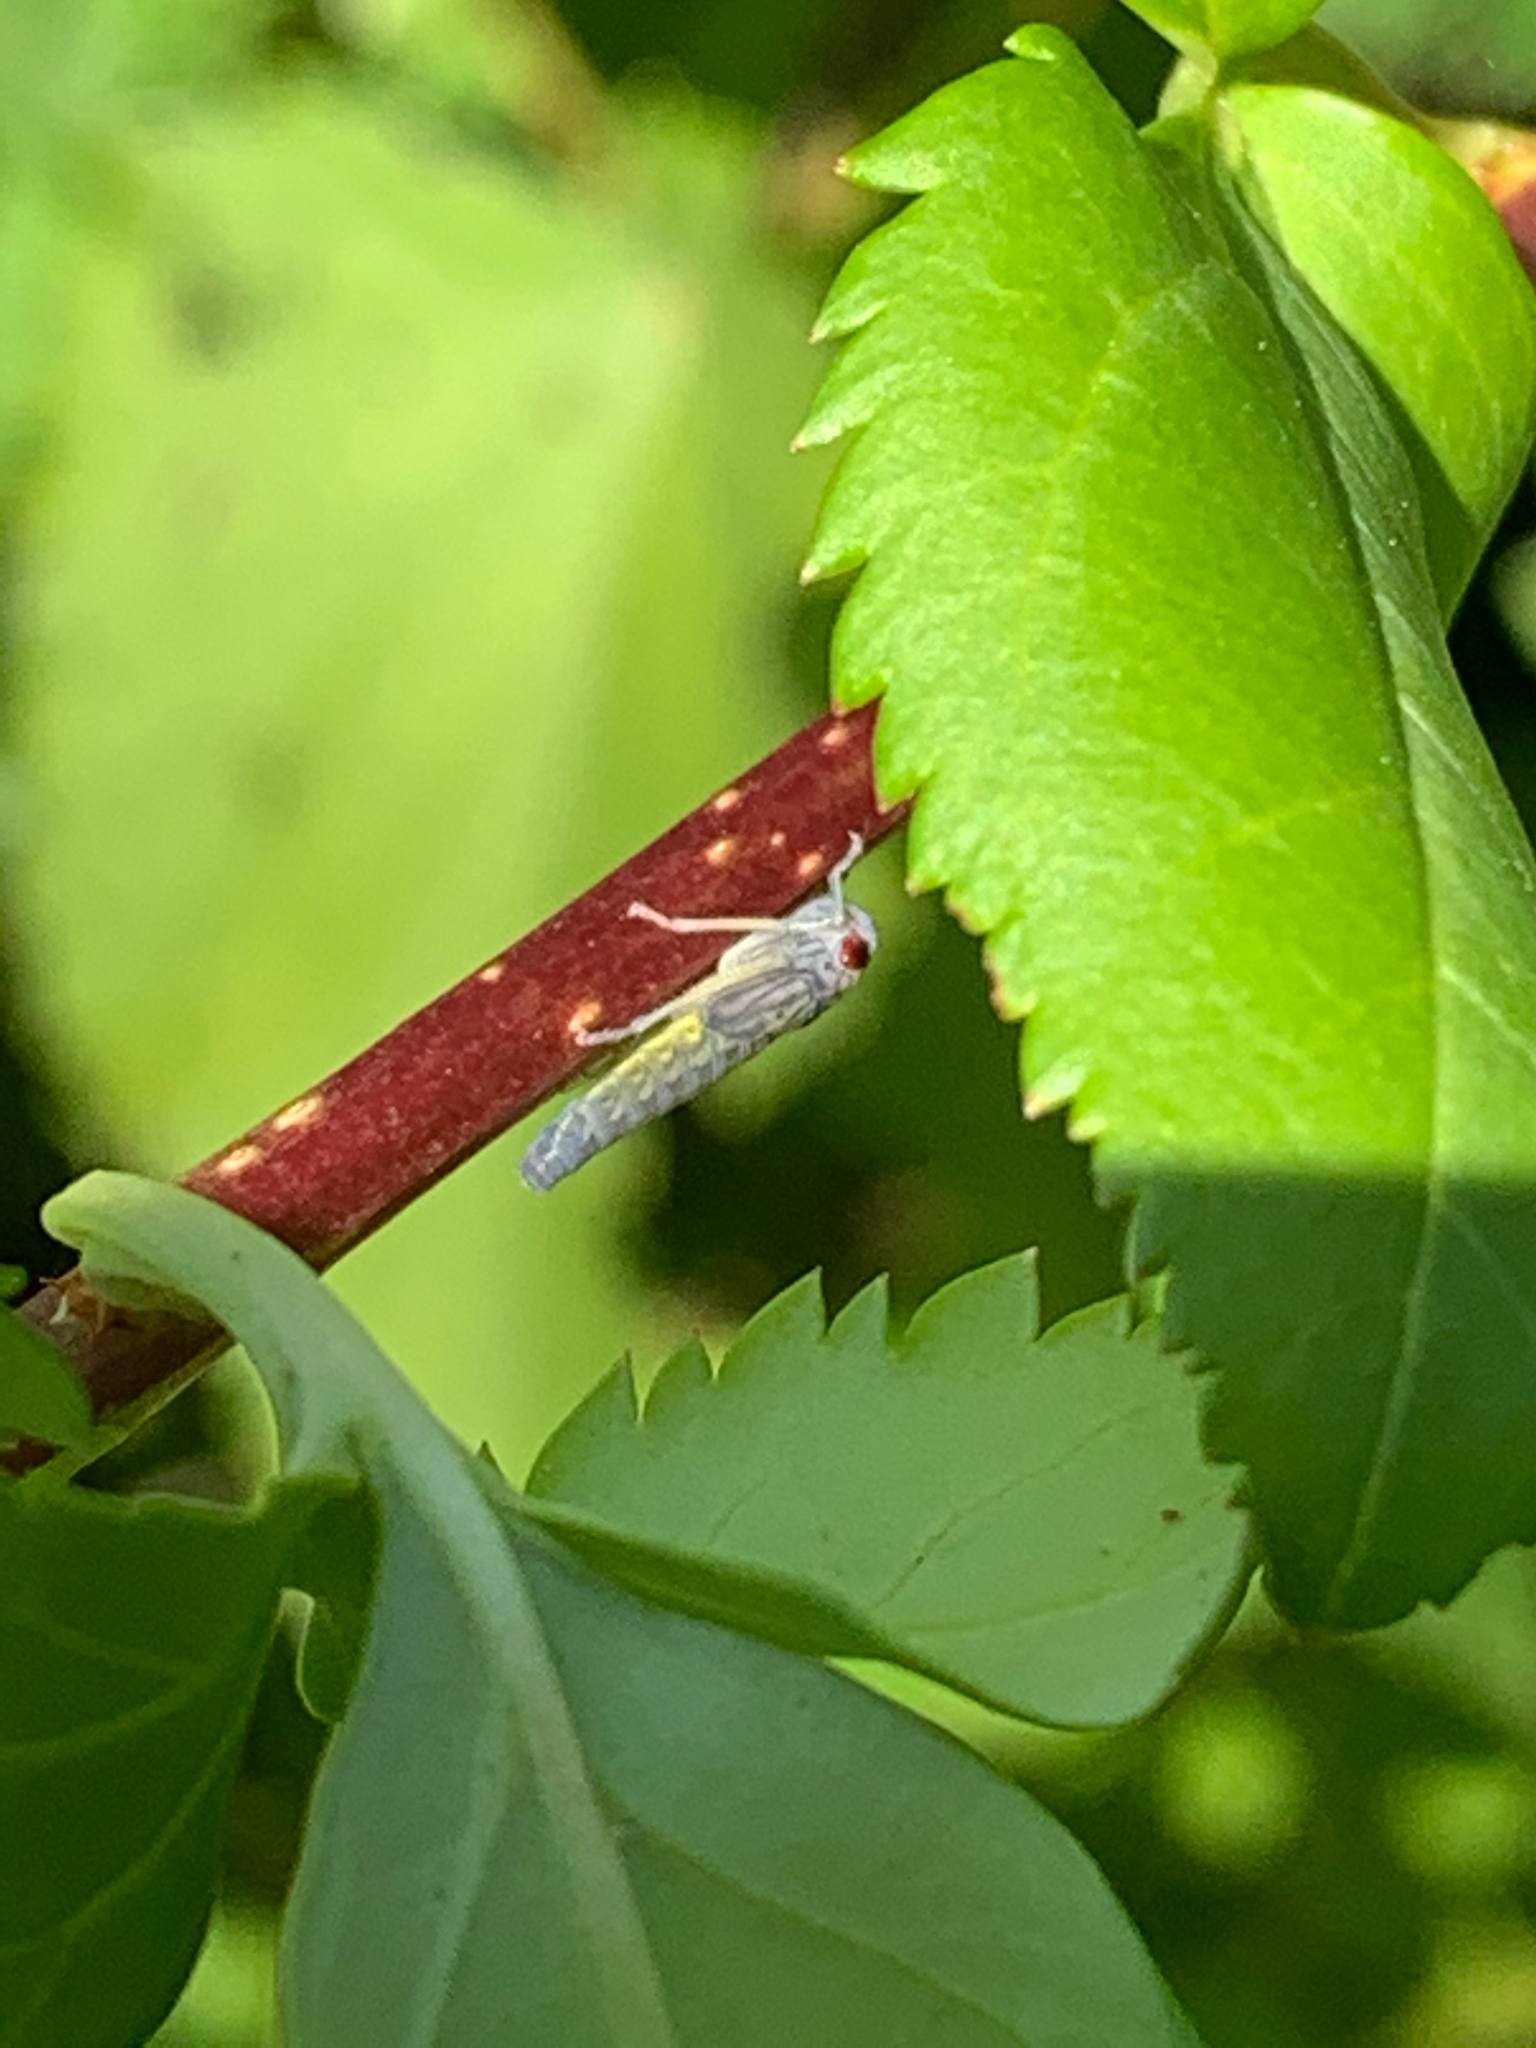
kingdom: Animalia
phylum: Arthropoda
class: Insecta
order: Hemiptera
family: Cicadellidae
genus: Oncometopia
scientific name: Oncometopia orbona
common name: Broad-headed sharpshooter
